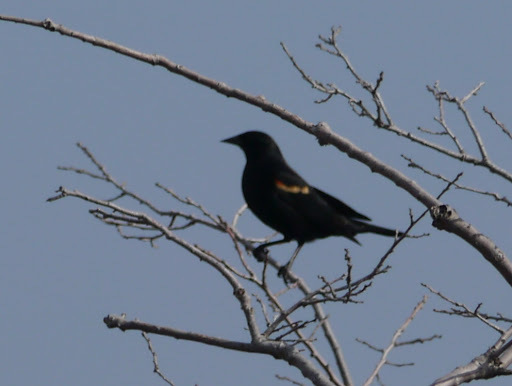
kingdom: Animalia
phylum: Chordata
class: Aves
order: Passeriformes
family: Icteridae
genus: Agelaius
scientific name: Agelaius phoeniceus
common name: Red-winged blackbird
